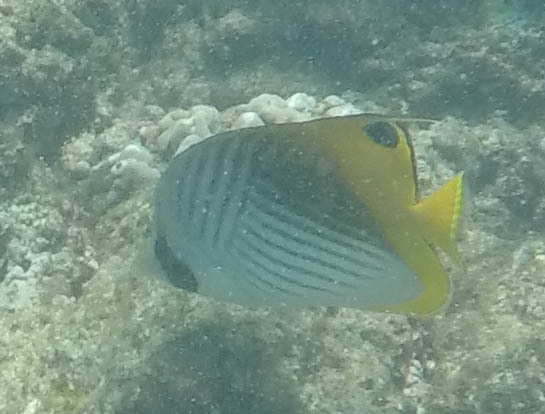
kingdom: Animalia
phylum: Chordata
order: Perciformes
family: Chaetodontidae
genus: Chaetodon
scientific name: Chaetodon auriga
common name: Threadfin butterflyfish
